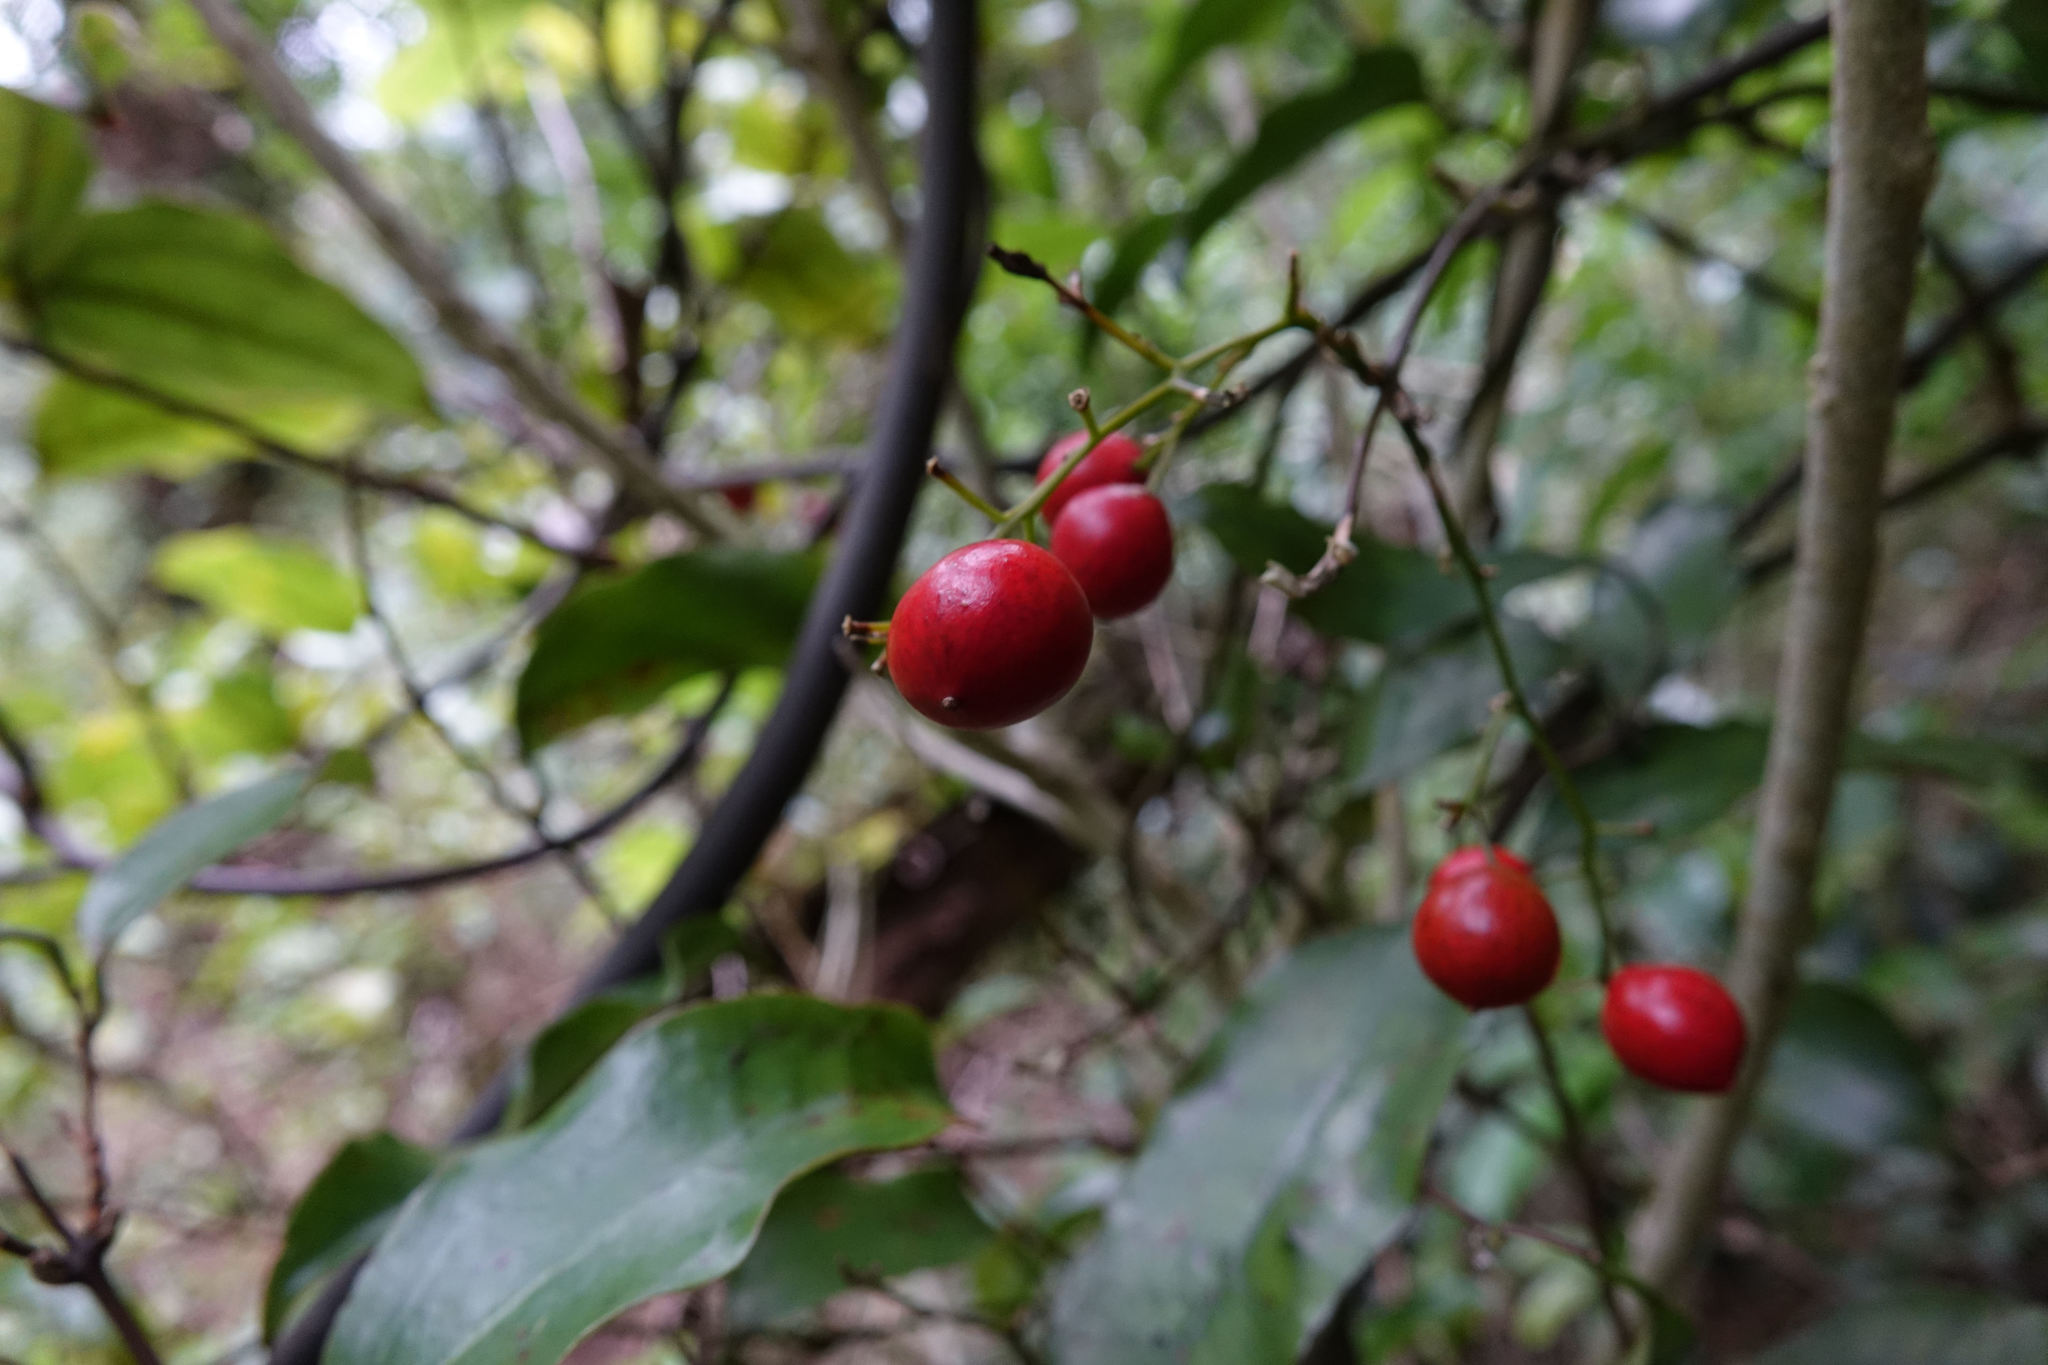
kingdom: Plantae
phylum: Tracheophyta
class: Liliopsida
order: Liliales
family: Ripogonaceae
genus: Ripogonum
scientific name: Ripogonum scandens
